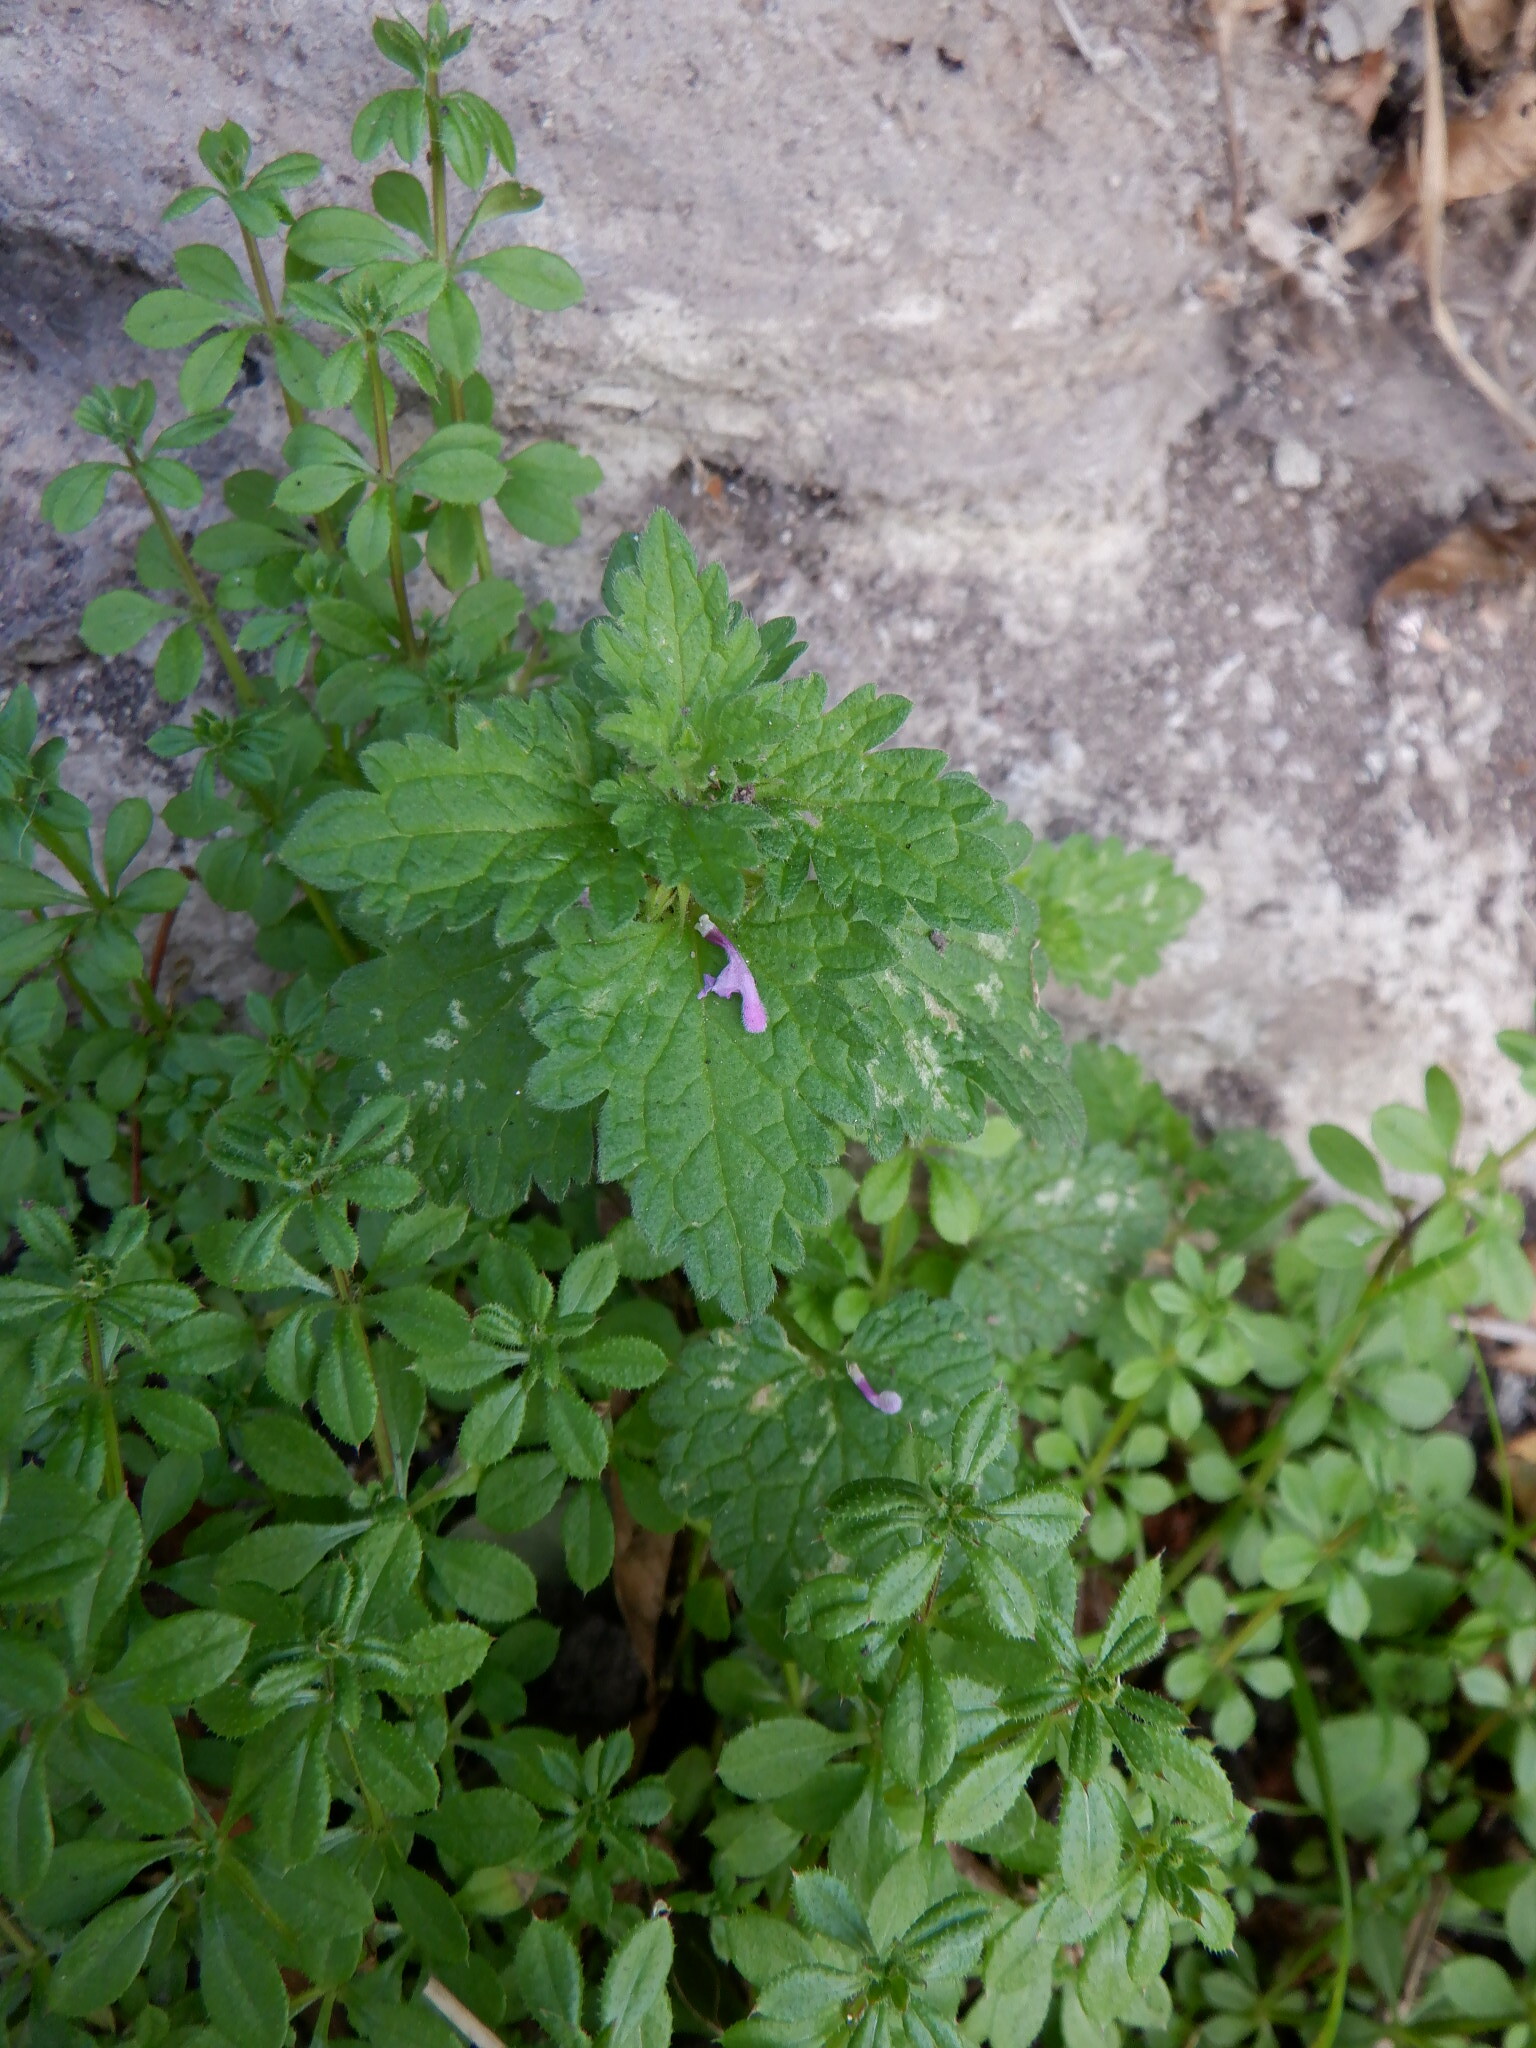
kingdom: Plantae
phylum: Tracheophyta
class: Magnoliopsida
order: Lamiales
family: Lamiaceae
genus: Lamium
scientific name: Lamium hybridum
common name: Cut-leaved dead-nettle
